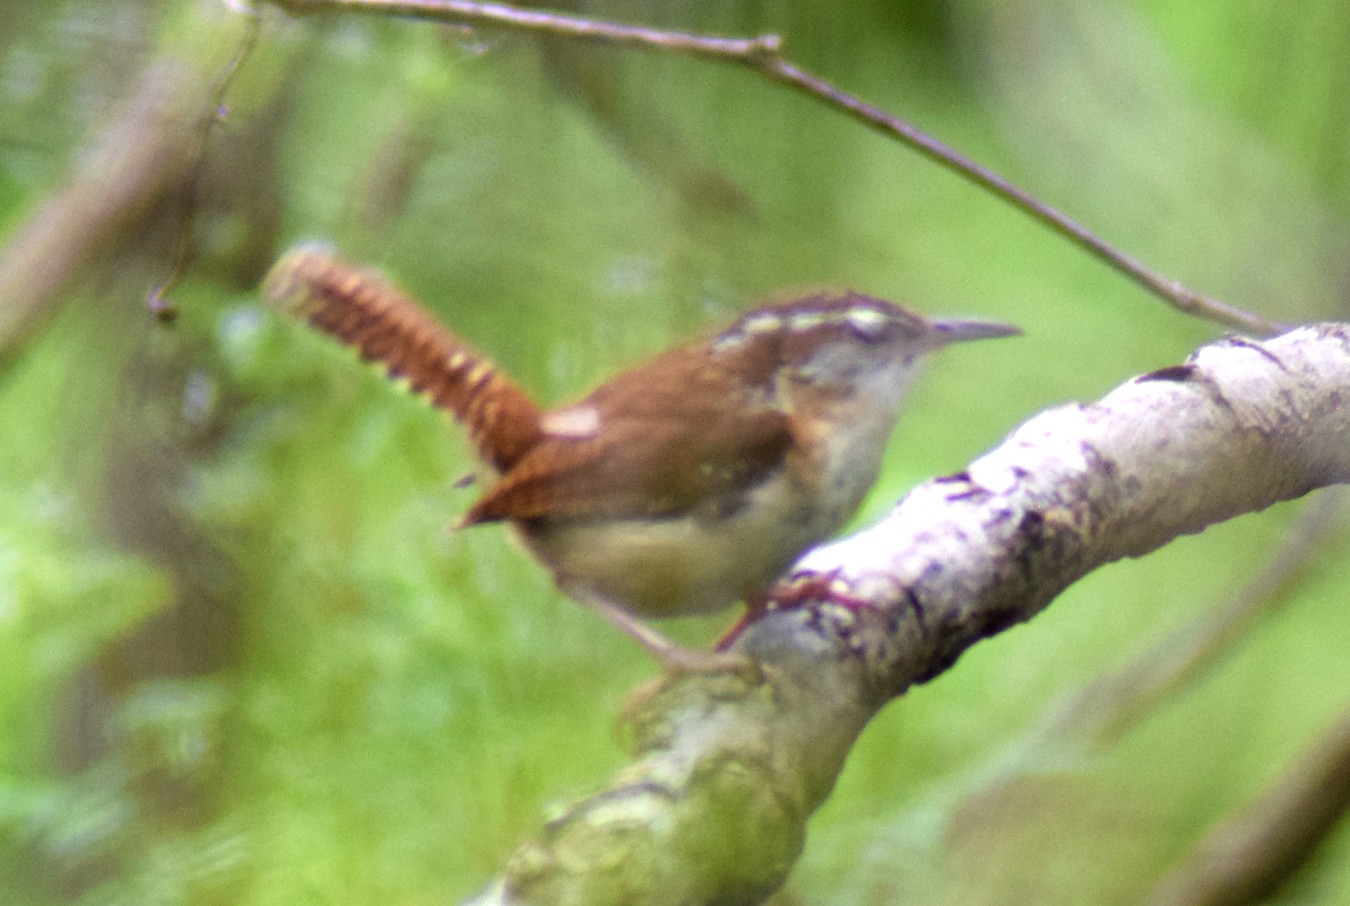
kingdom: Animalia
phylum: Chordata
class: Aves
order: Passeriformes
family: Troglodytidae
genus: Thryothorus
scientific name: Thryothorus ludovicianus
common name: Carolina wren
